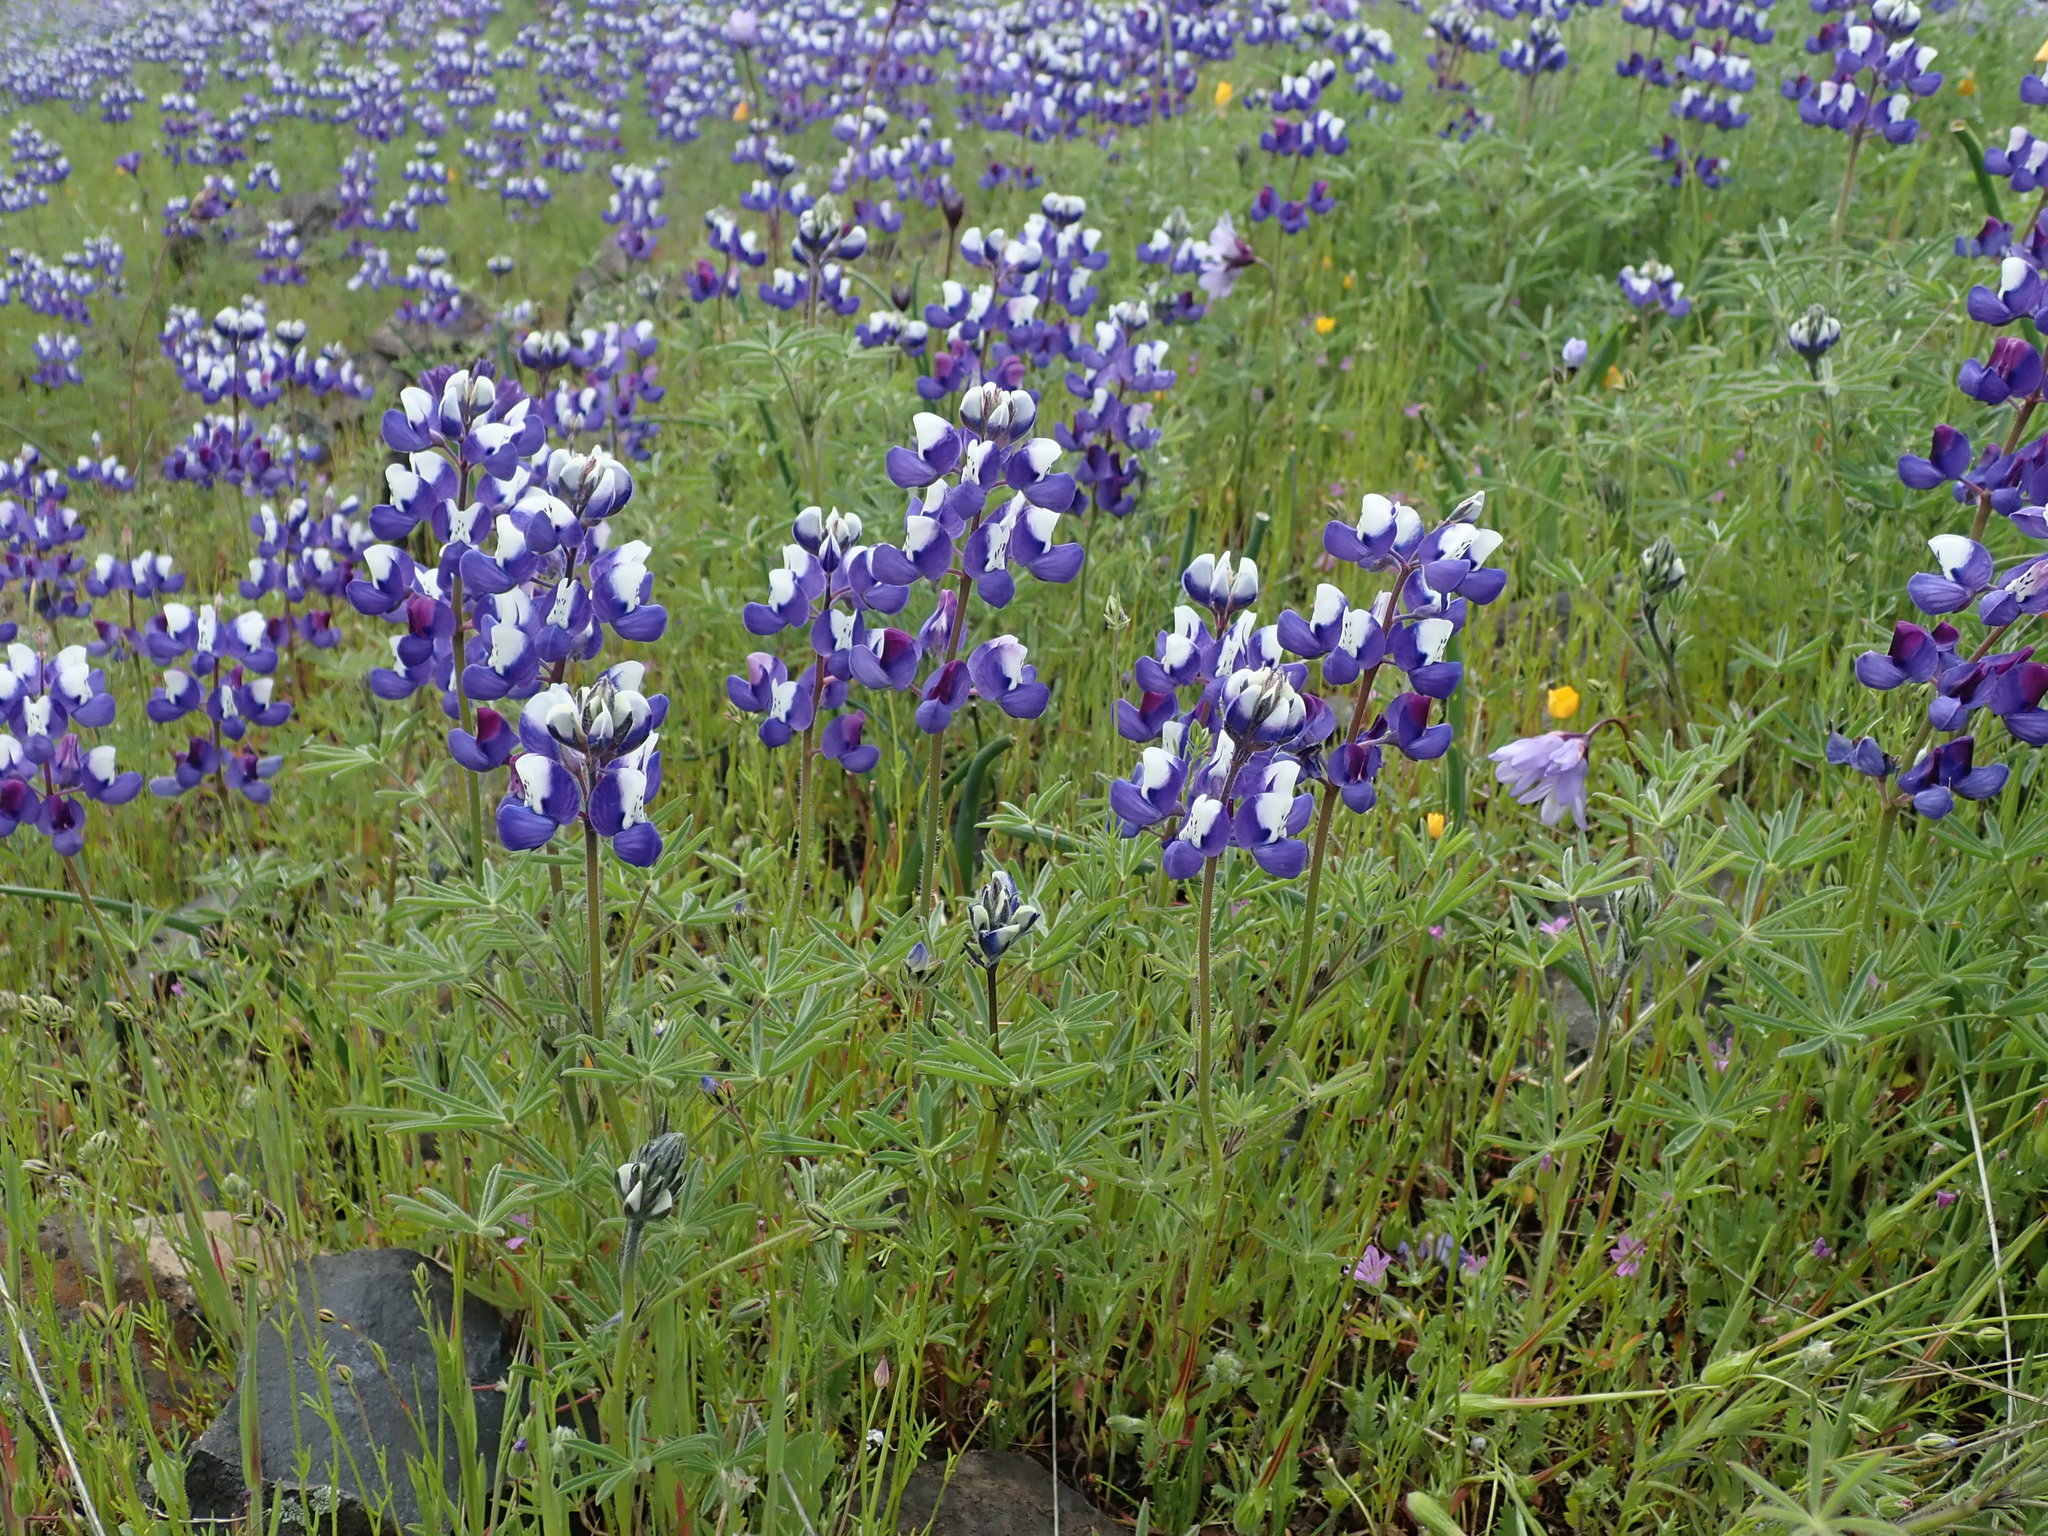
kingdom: Plantae
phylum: Tracheophyta
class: Magnoliopsida
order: Fabales
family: Fabaceae
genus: Lupinus
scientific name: Lupinus nanus
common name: Orean blue lupin
